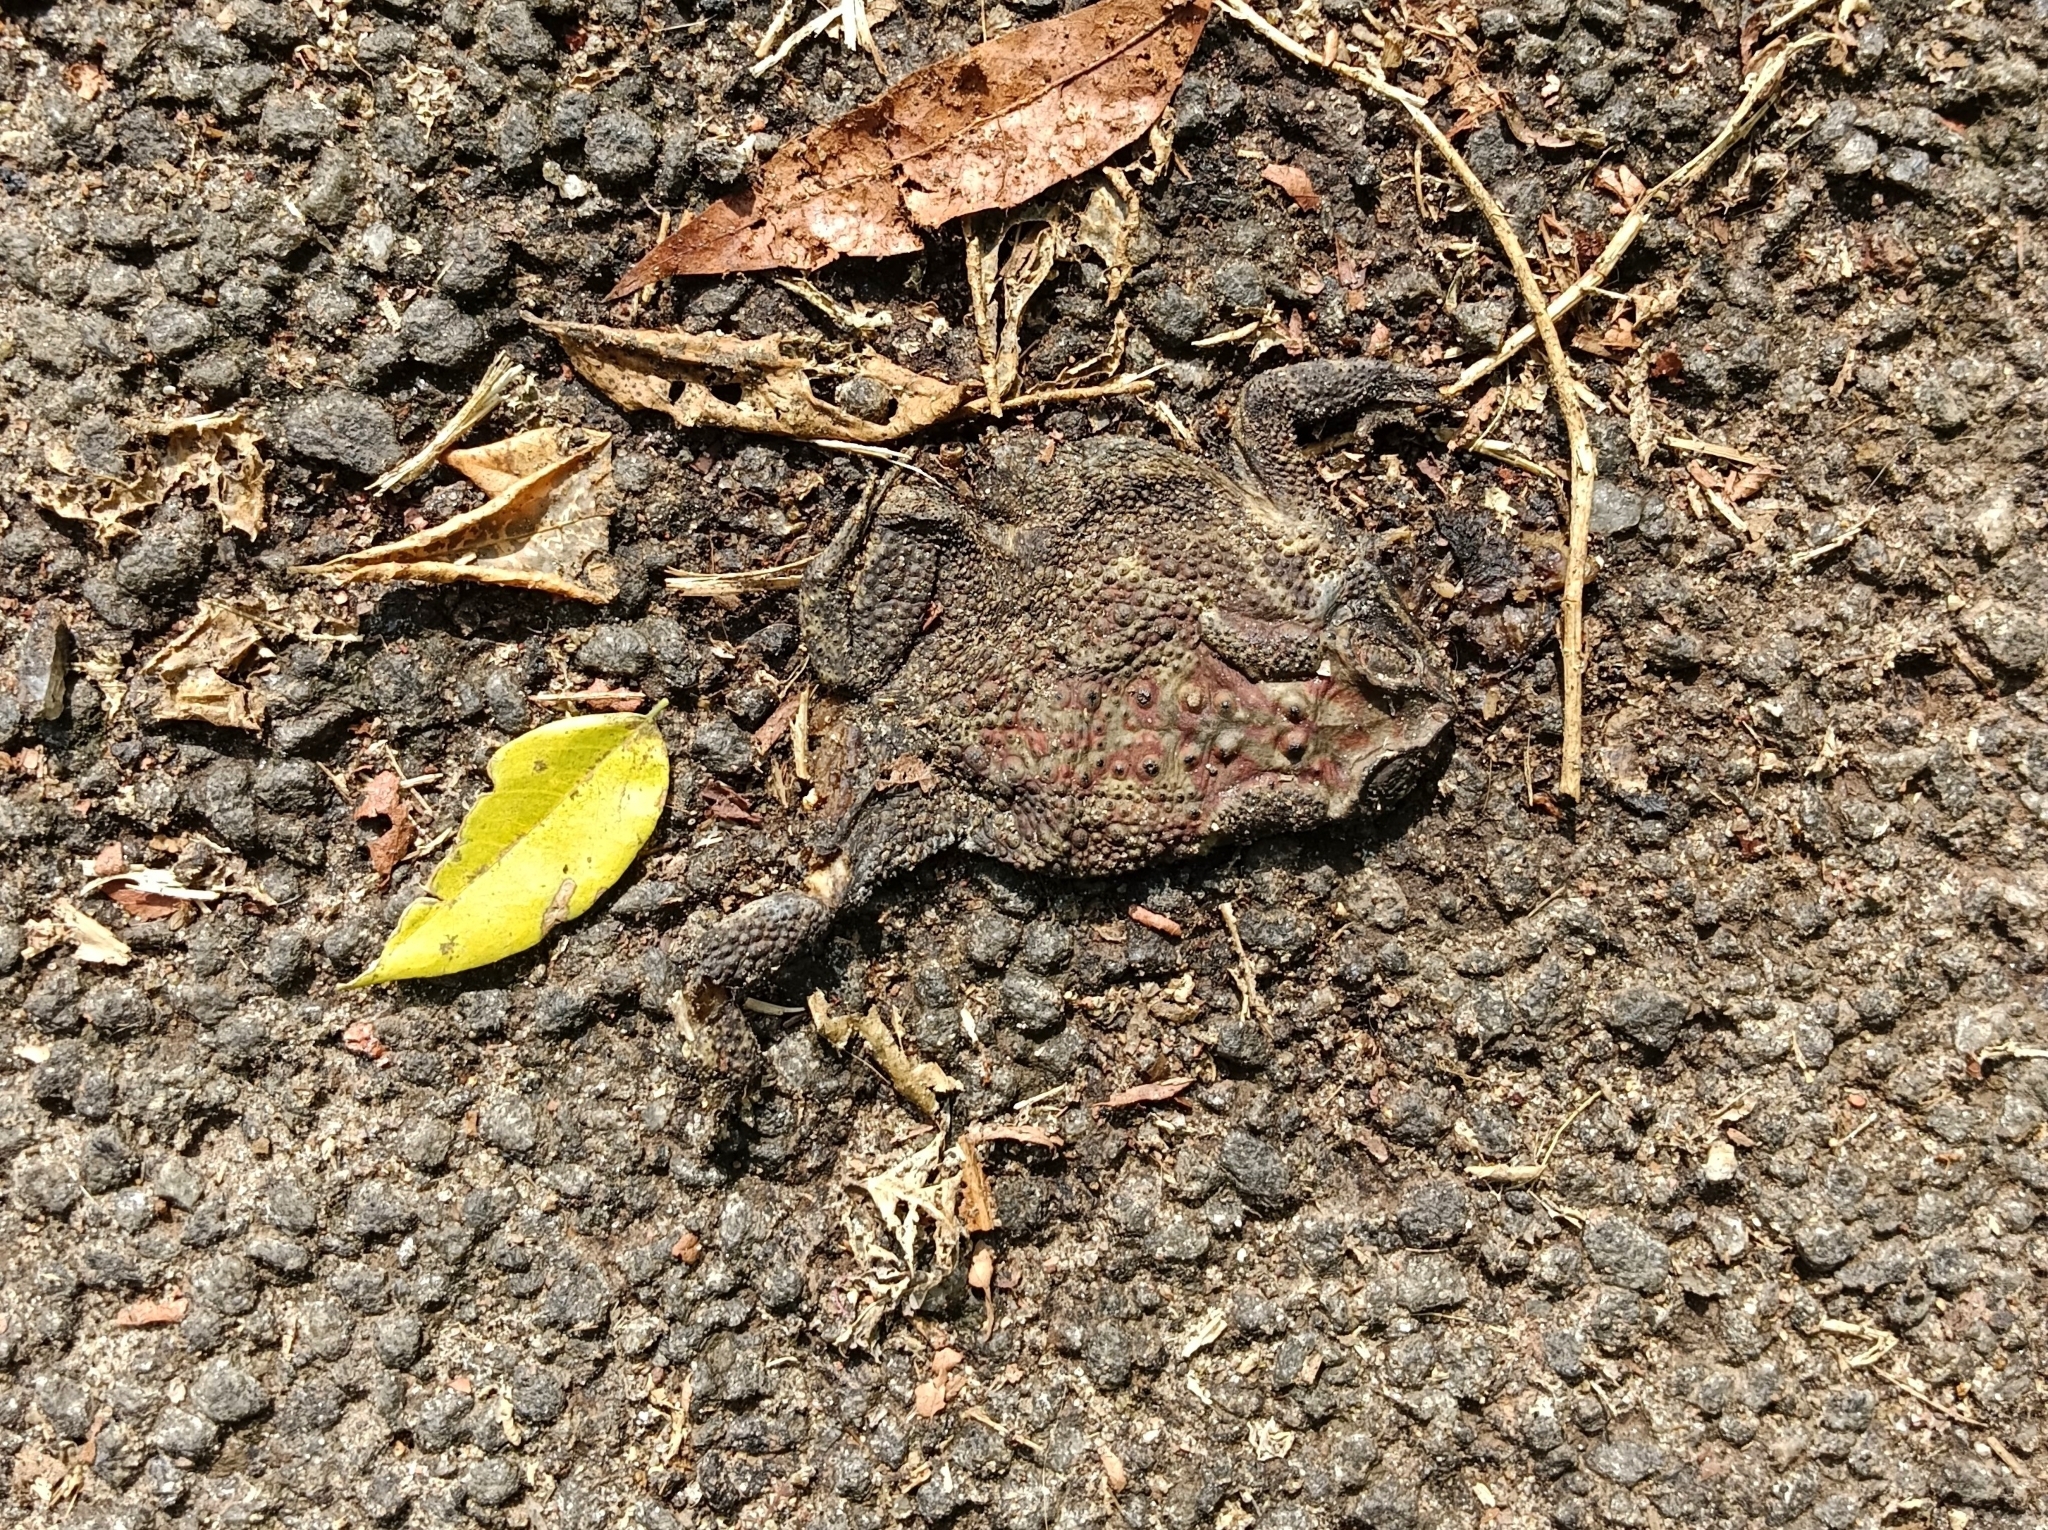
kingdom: Animalia
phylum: Chordata
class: Amphibia
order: Anura
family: Bufonidae
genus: Duttaphrynus
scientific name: Duttaphrynus melanostictus
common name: Common sunda toad
